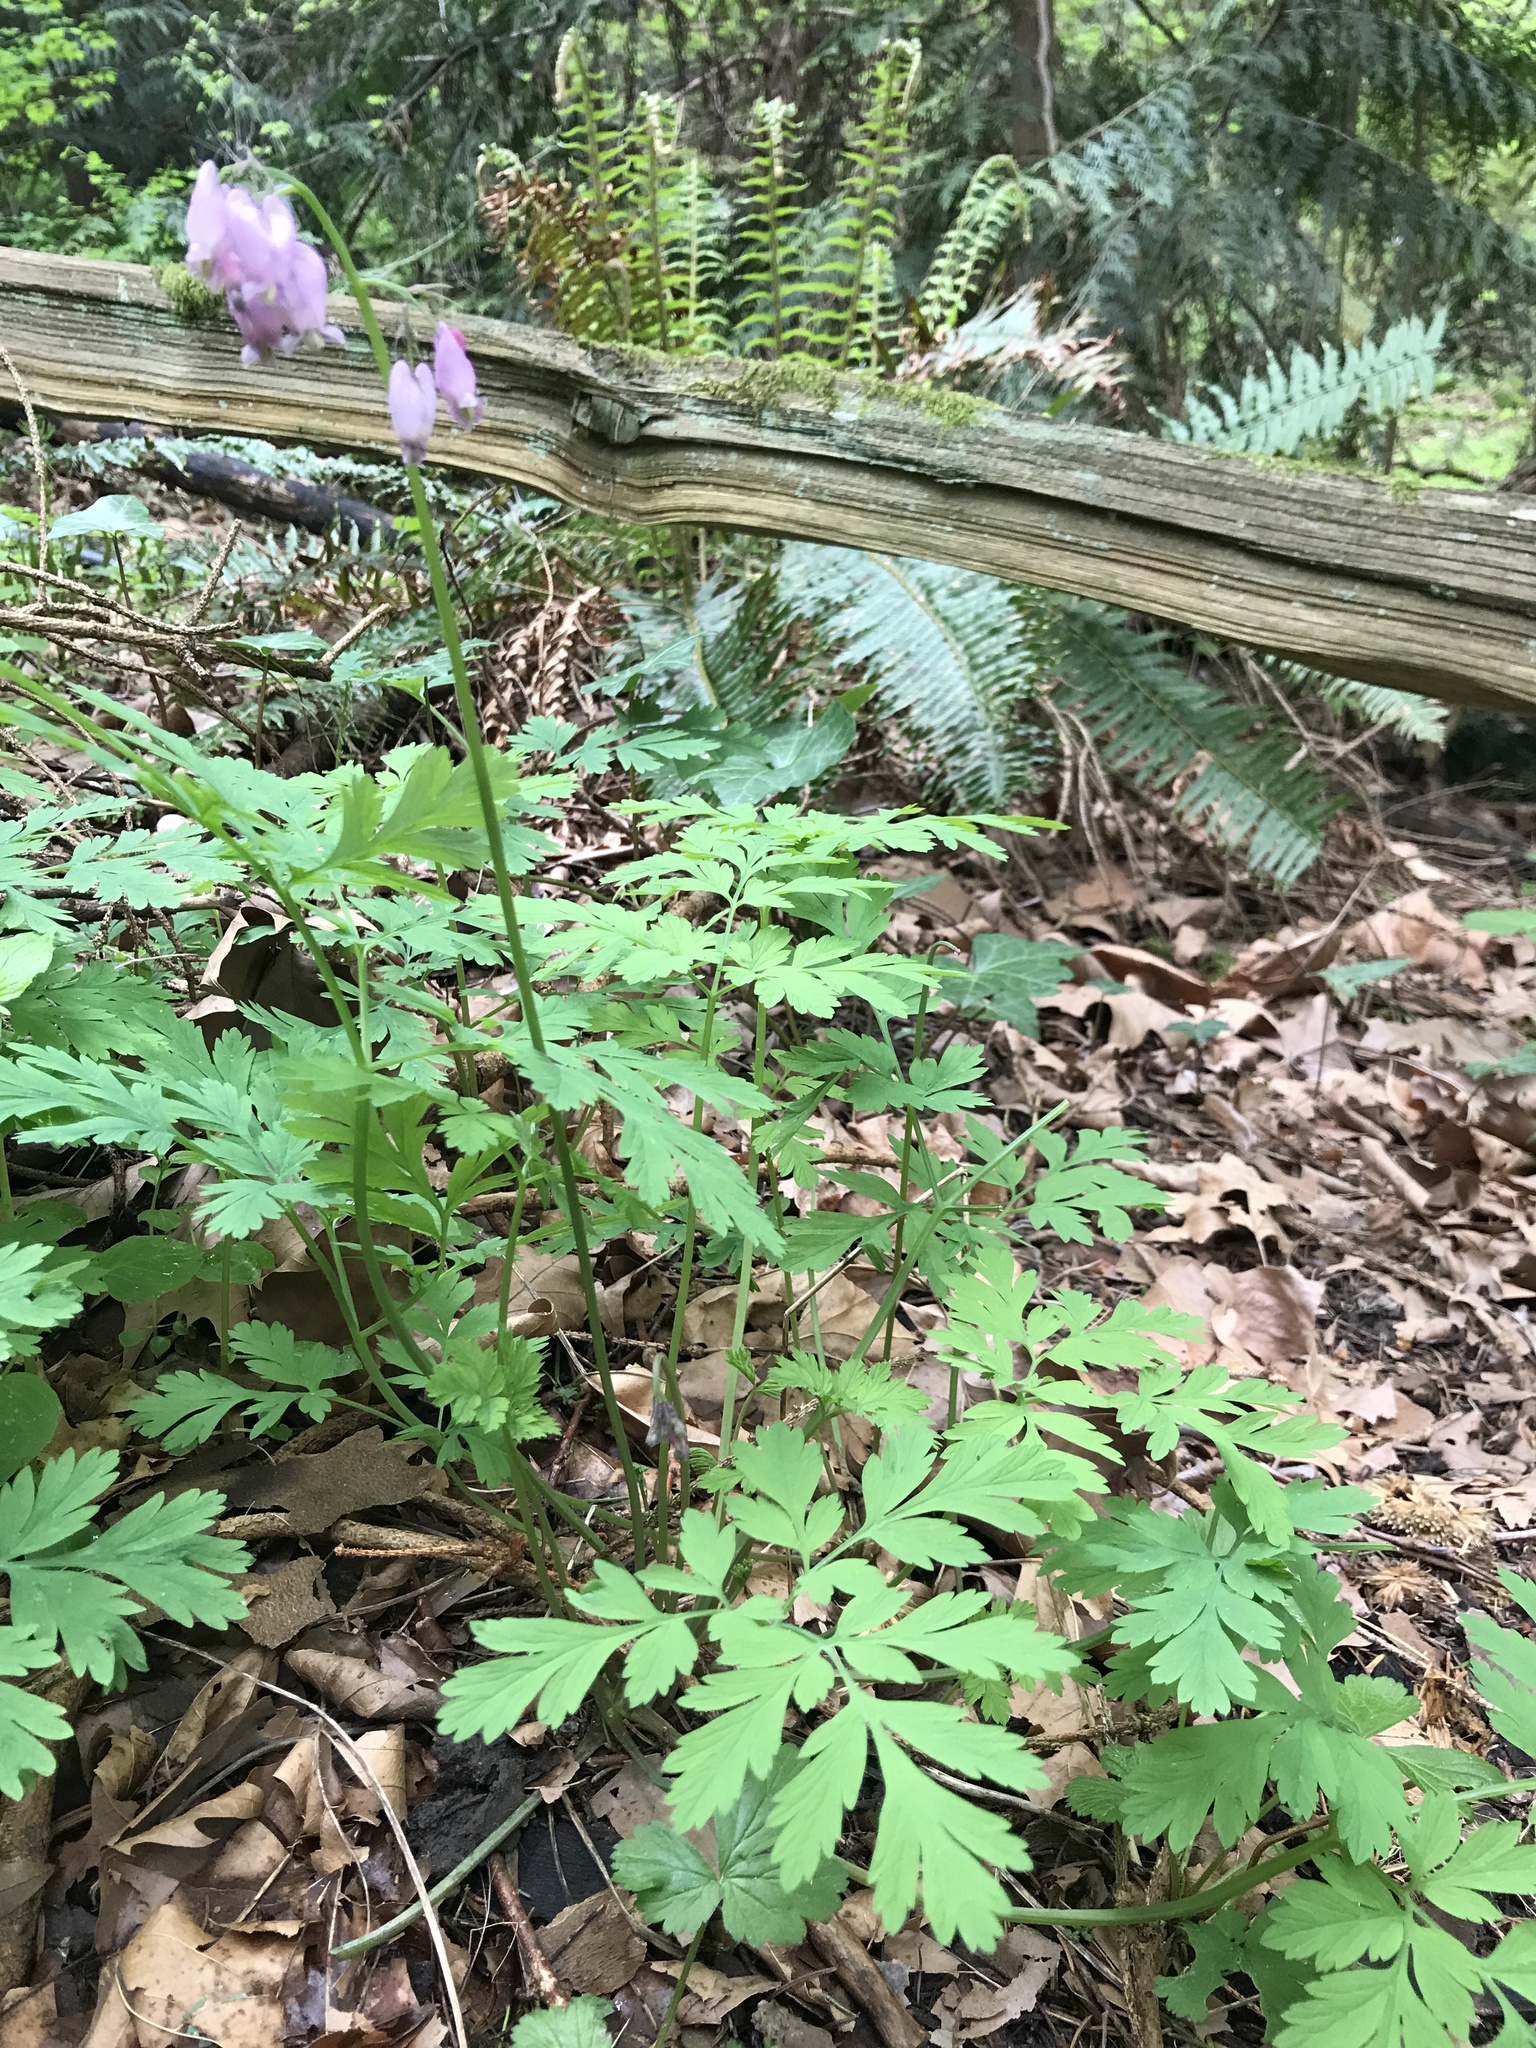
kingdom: Plantae
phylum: Tracheophyta
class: Magnoliopsida
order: Ranunculales
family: Papaveraceae
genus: Dicentra
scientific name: Dicentra formosa
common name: Bleeding-heart
